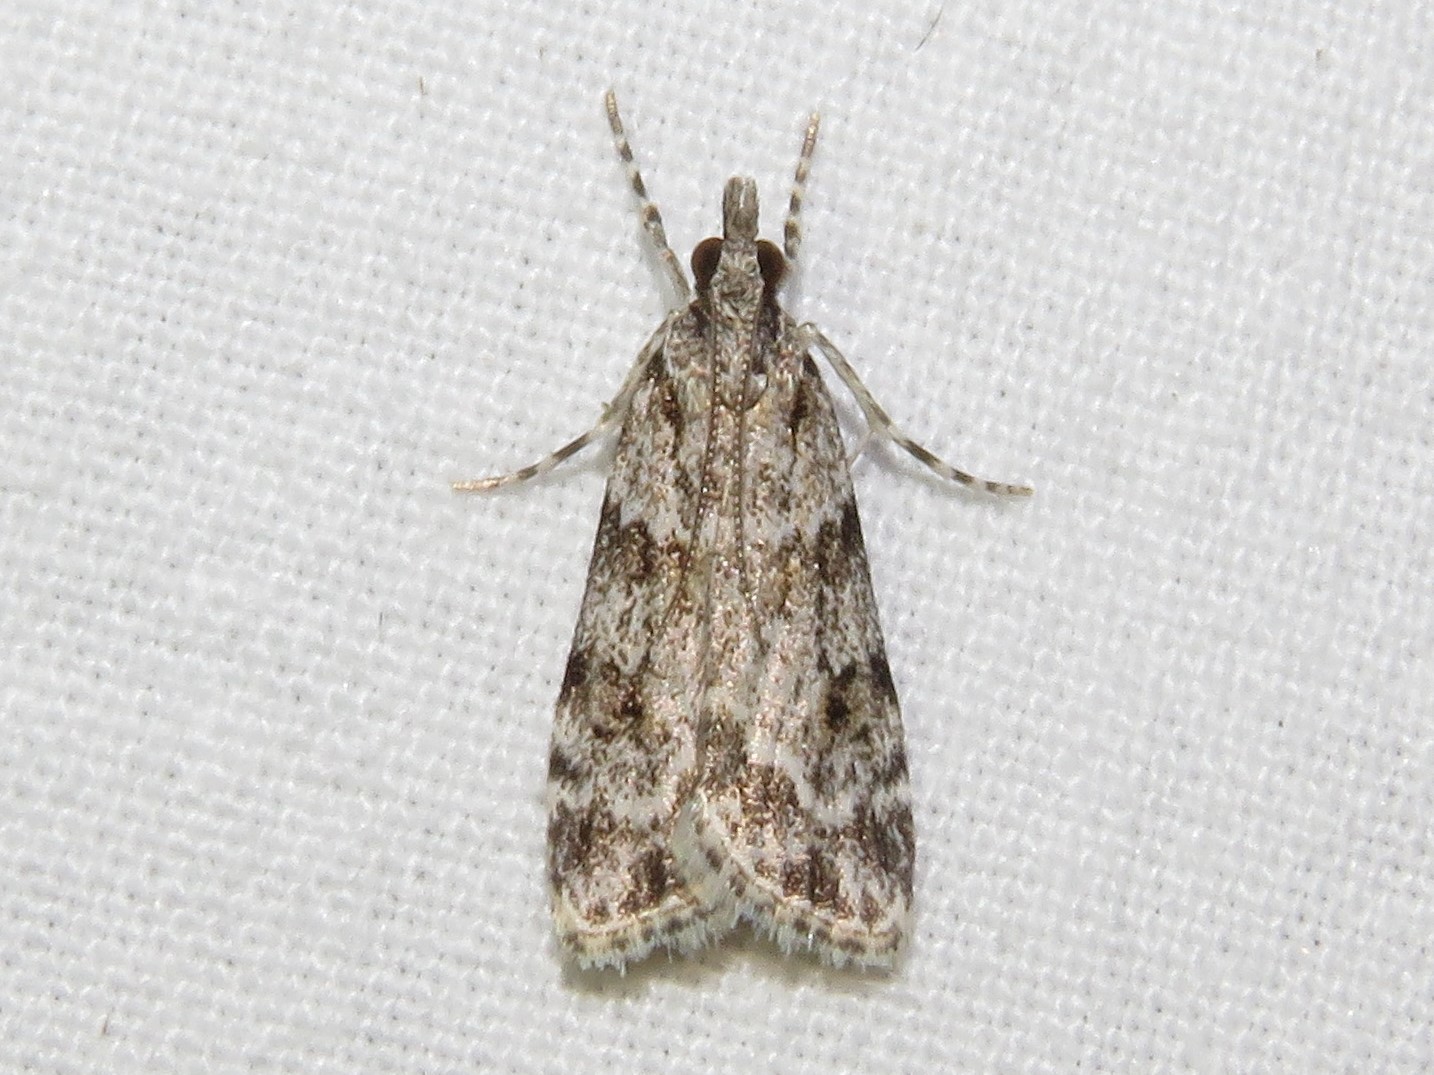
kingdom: Animalia
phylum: Arthropoda
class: Insecta
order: Lepidoptera
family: Crambidae
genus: Scoparia
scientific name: Scoparia biplagialis
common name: Double-striped scoparia moth
